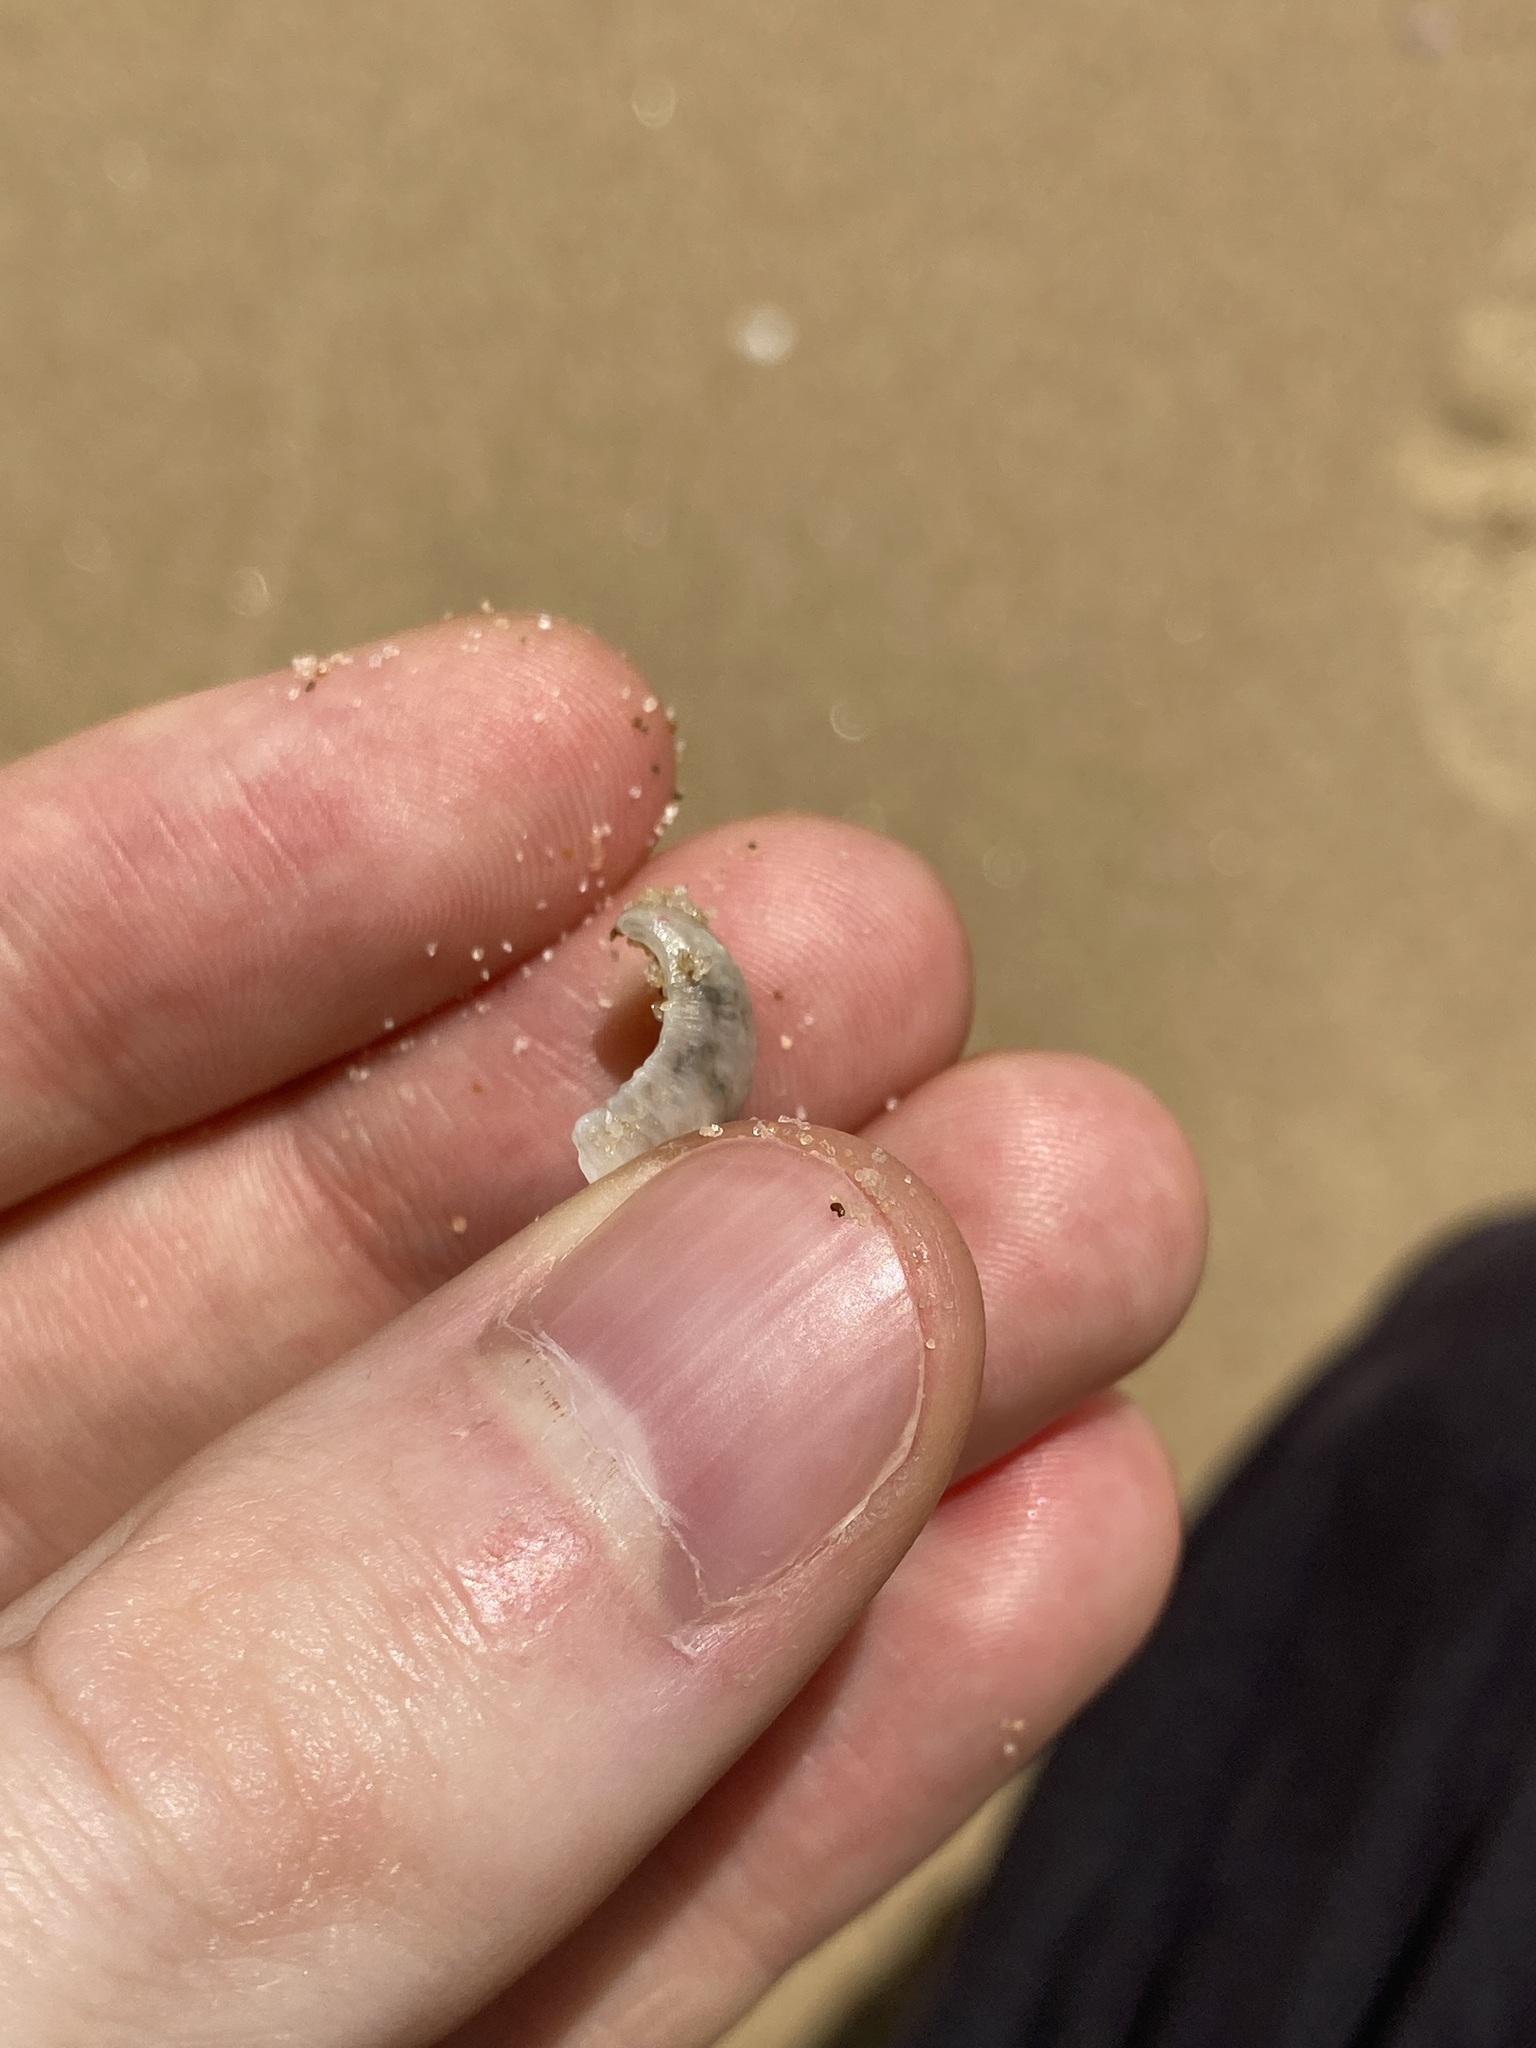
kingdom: Animalia
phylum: Mollusca
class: Bivalvia
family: Myochamidae
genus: Myadora
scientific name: Myadora brevis
